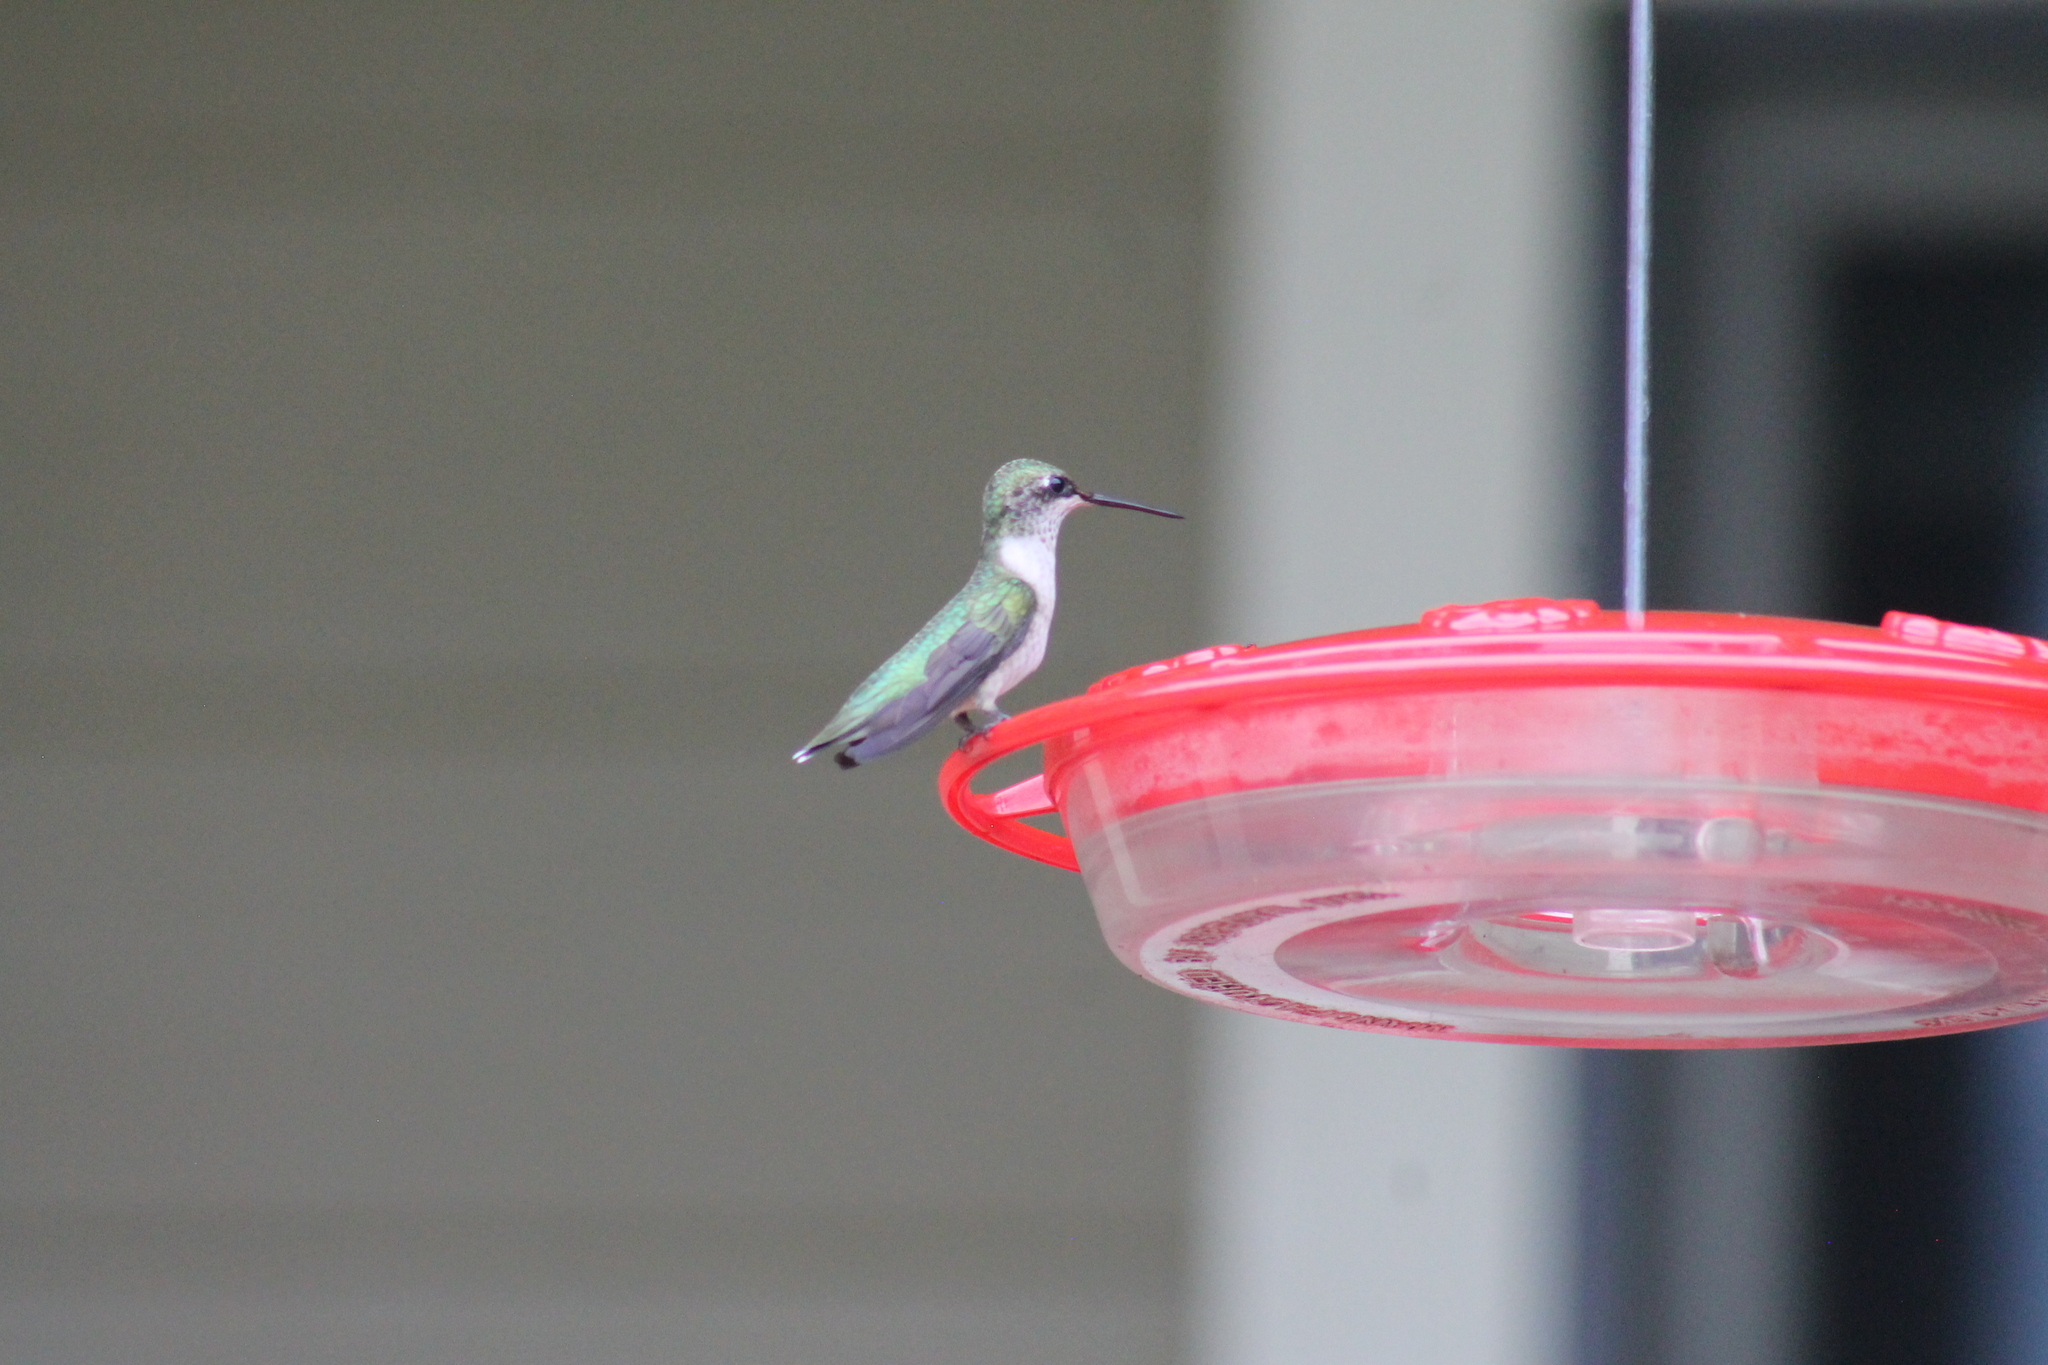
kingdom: Animalia
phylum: Chordata
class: Aves
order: Apodiformes
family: Trochilidae
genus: Archilochus
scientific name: Archilochus colubris
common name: Ruby-throated hummingbird
